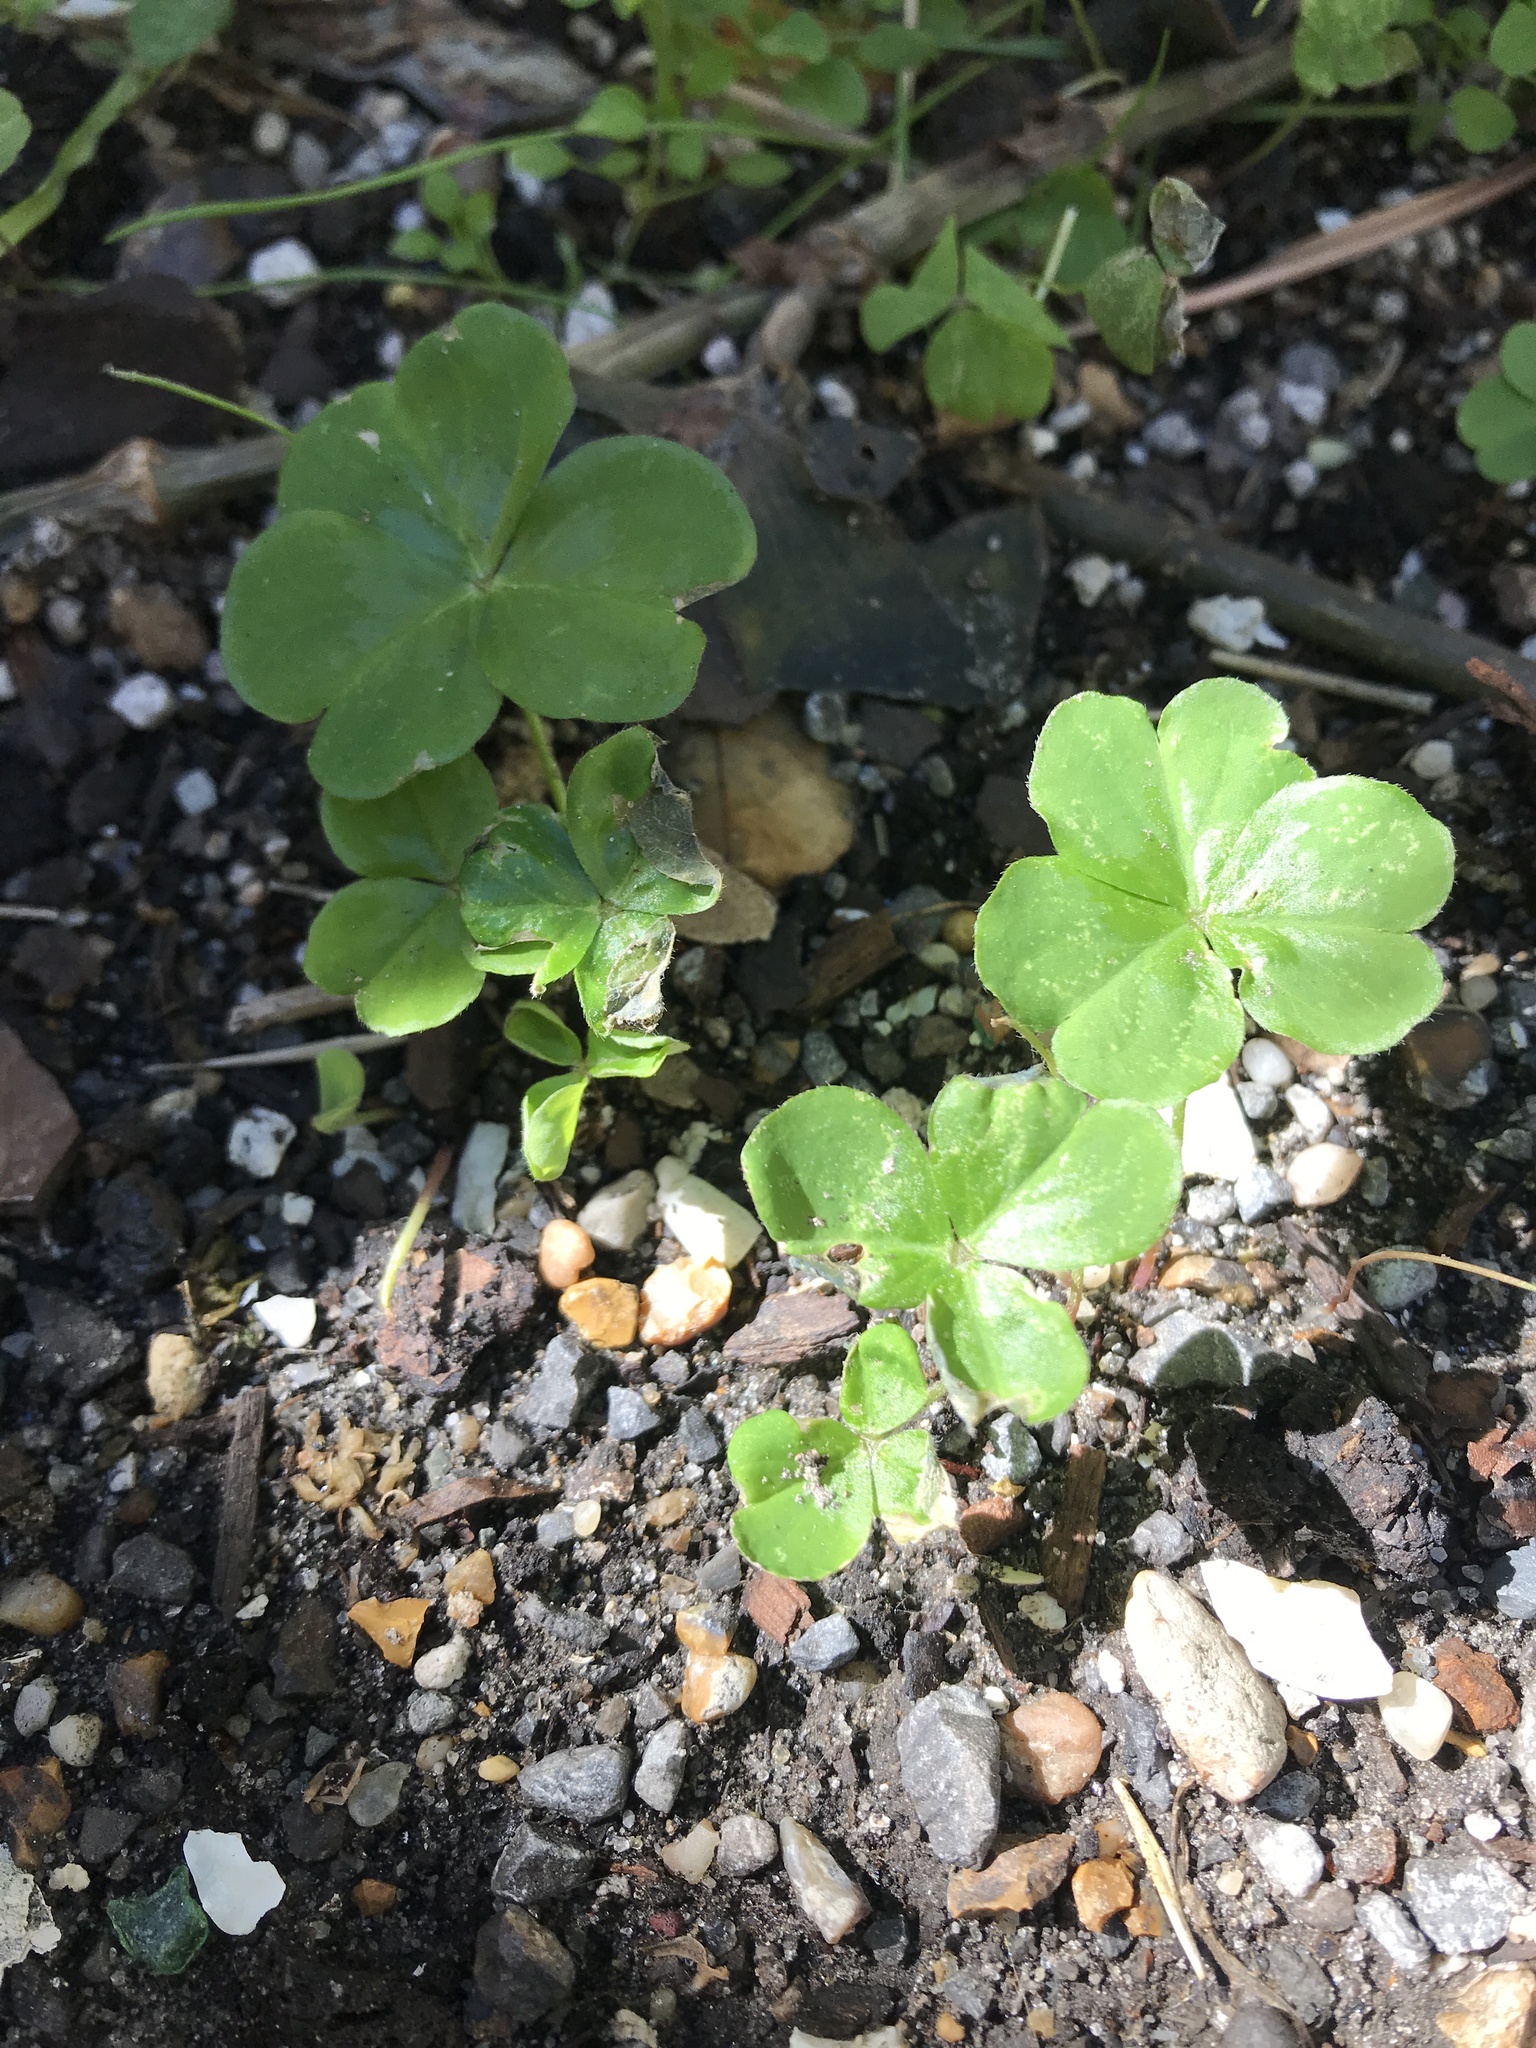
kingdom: Plantae
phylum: Tracheophyta
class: Magnoliopsida
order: Oxalidales
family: Oxalidaceae
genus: Oxalis
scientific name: Oxalis debilis
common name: Large-flowered pink-sorrel
